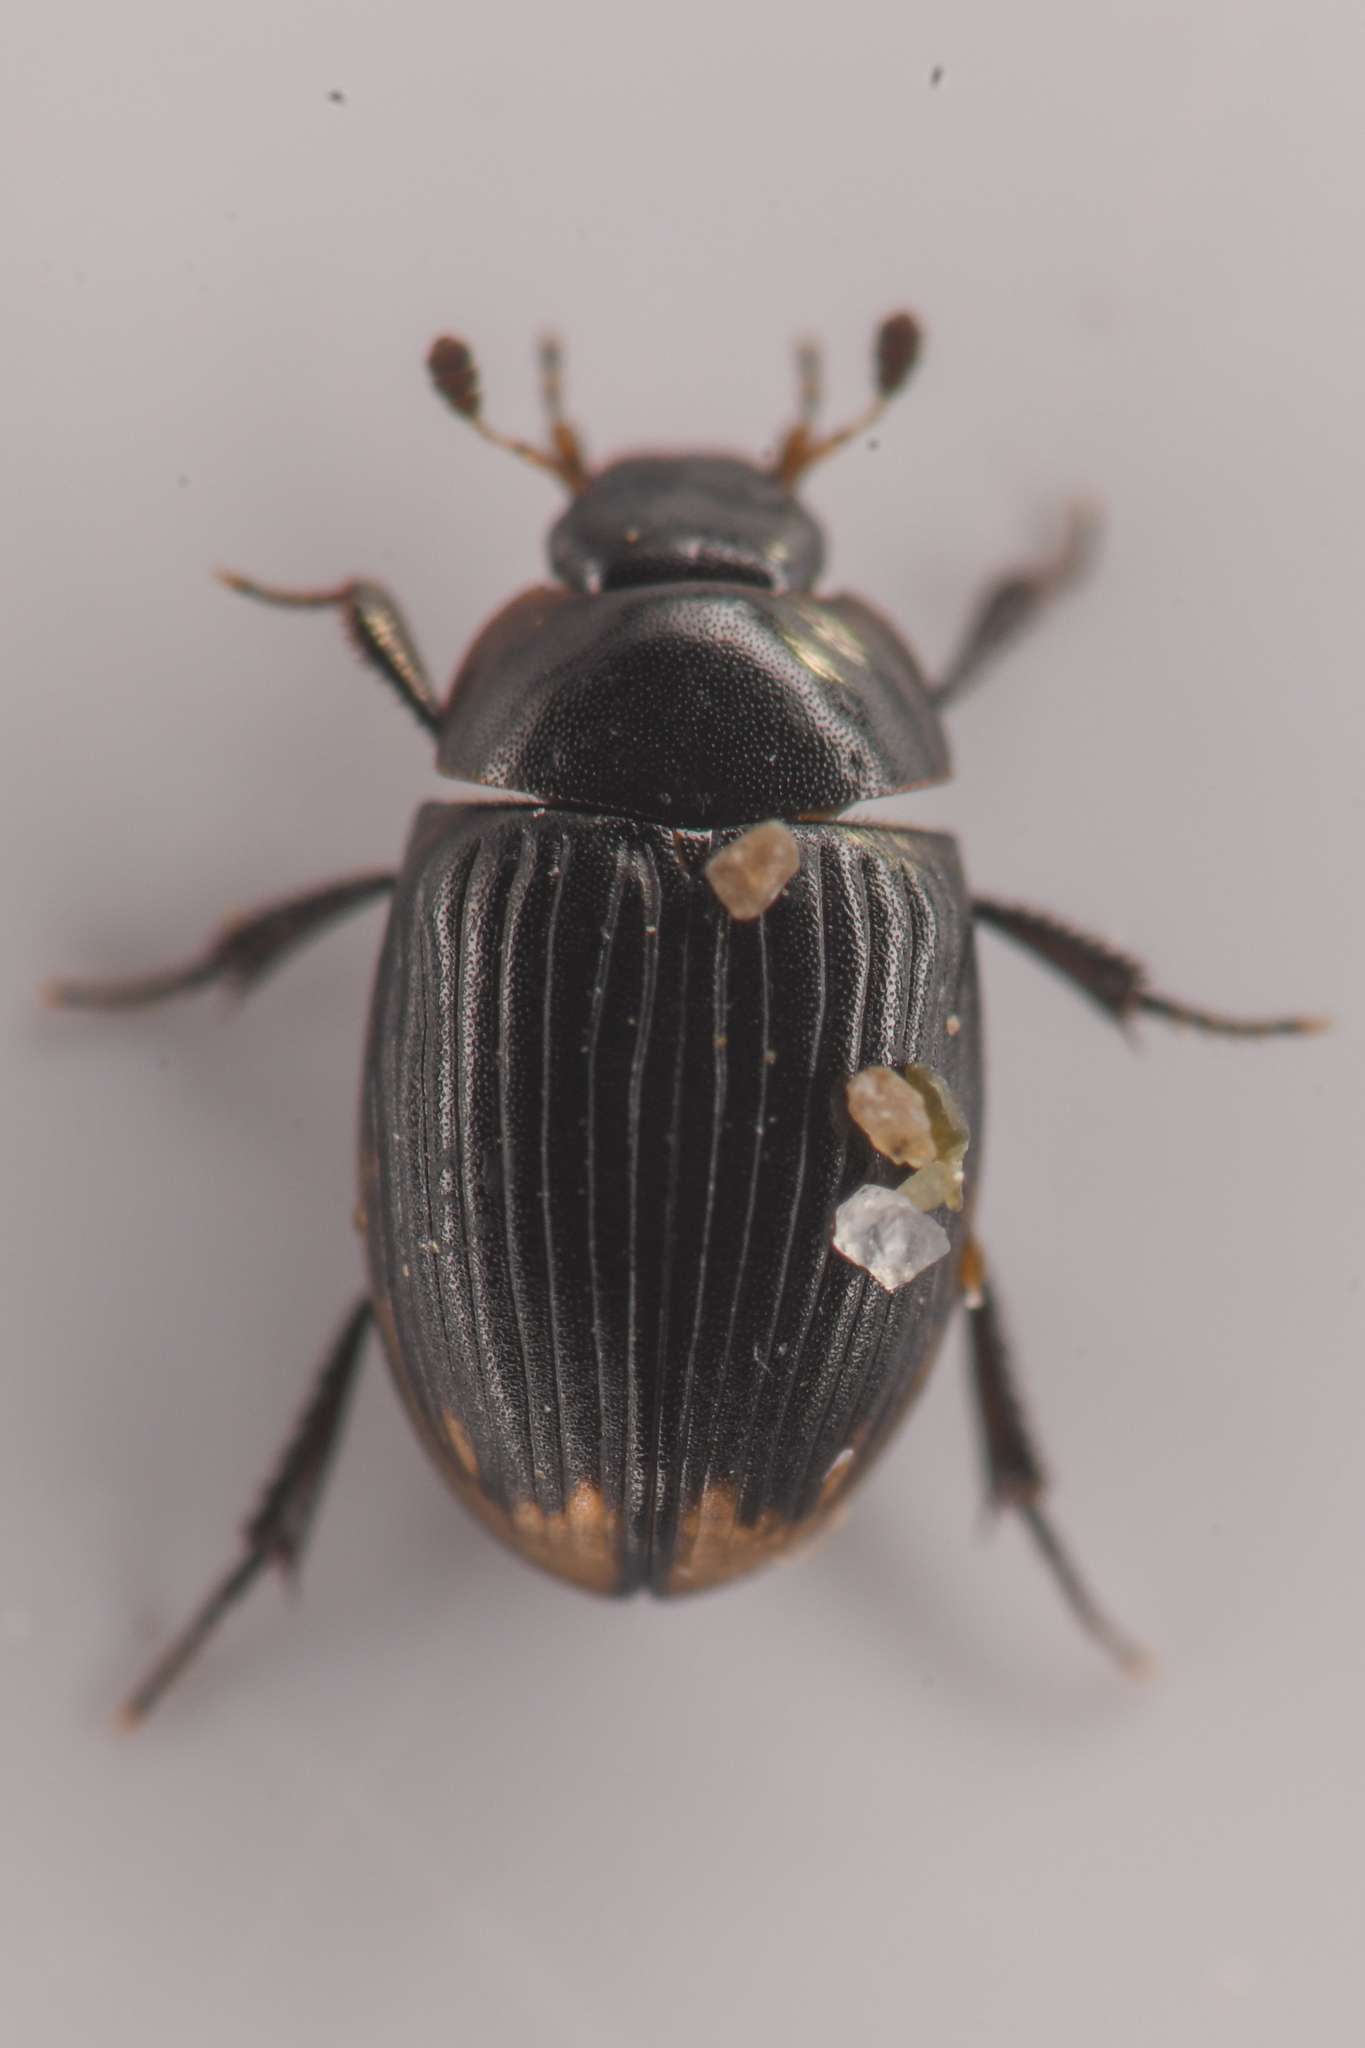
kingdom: Animalia
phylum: Arthropoda
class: Insecta
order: Coleoptera
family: Hydrophilidae
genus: Cercyon
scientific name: Cercyon fimbriatus
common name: Water scavenger beetle
